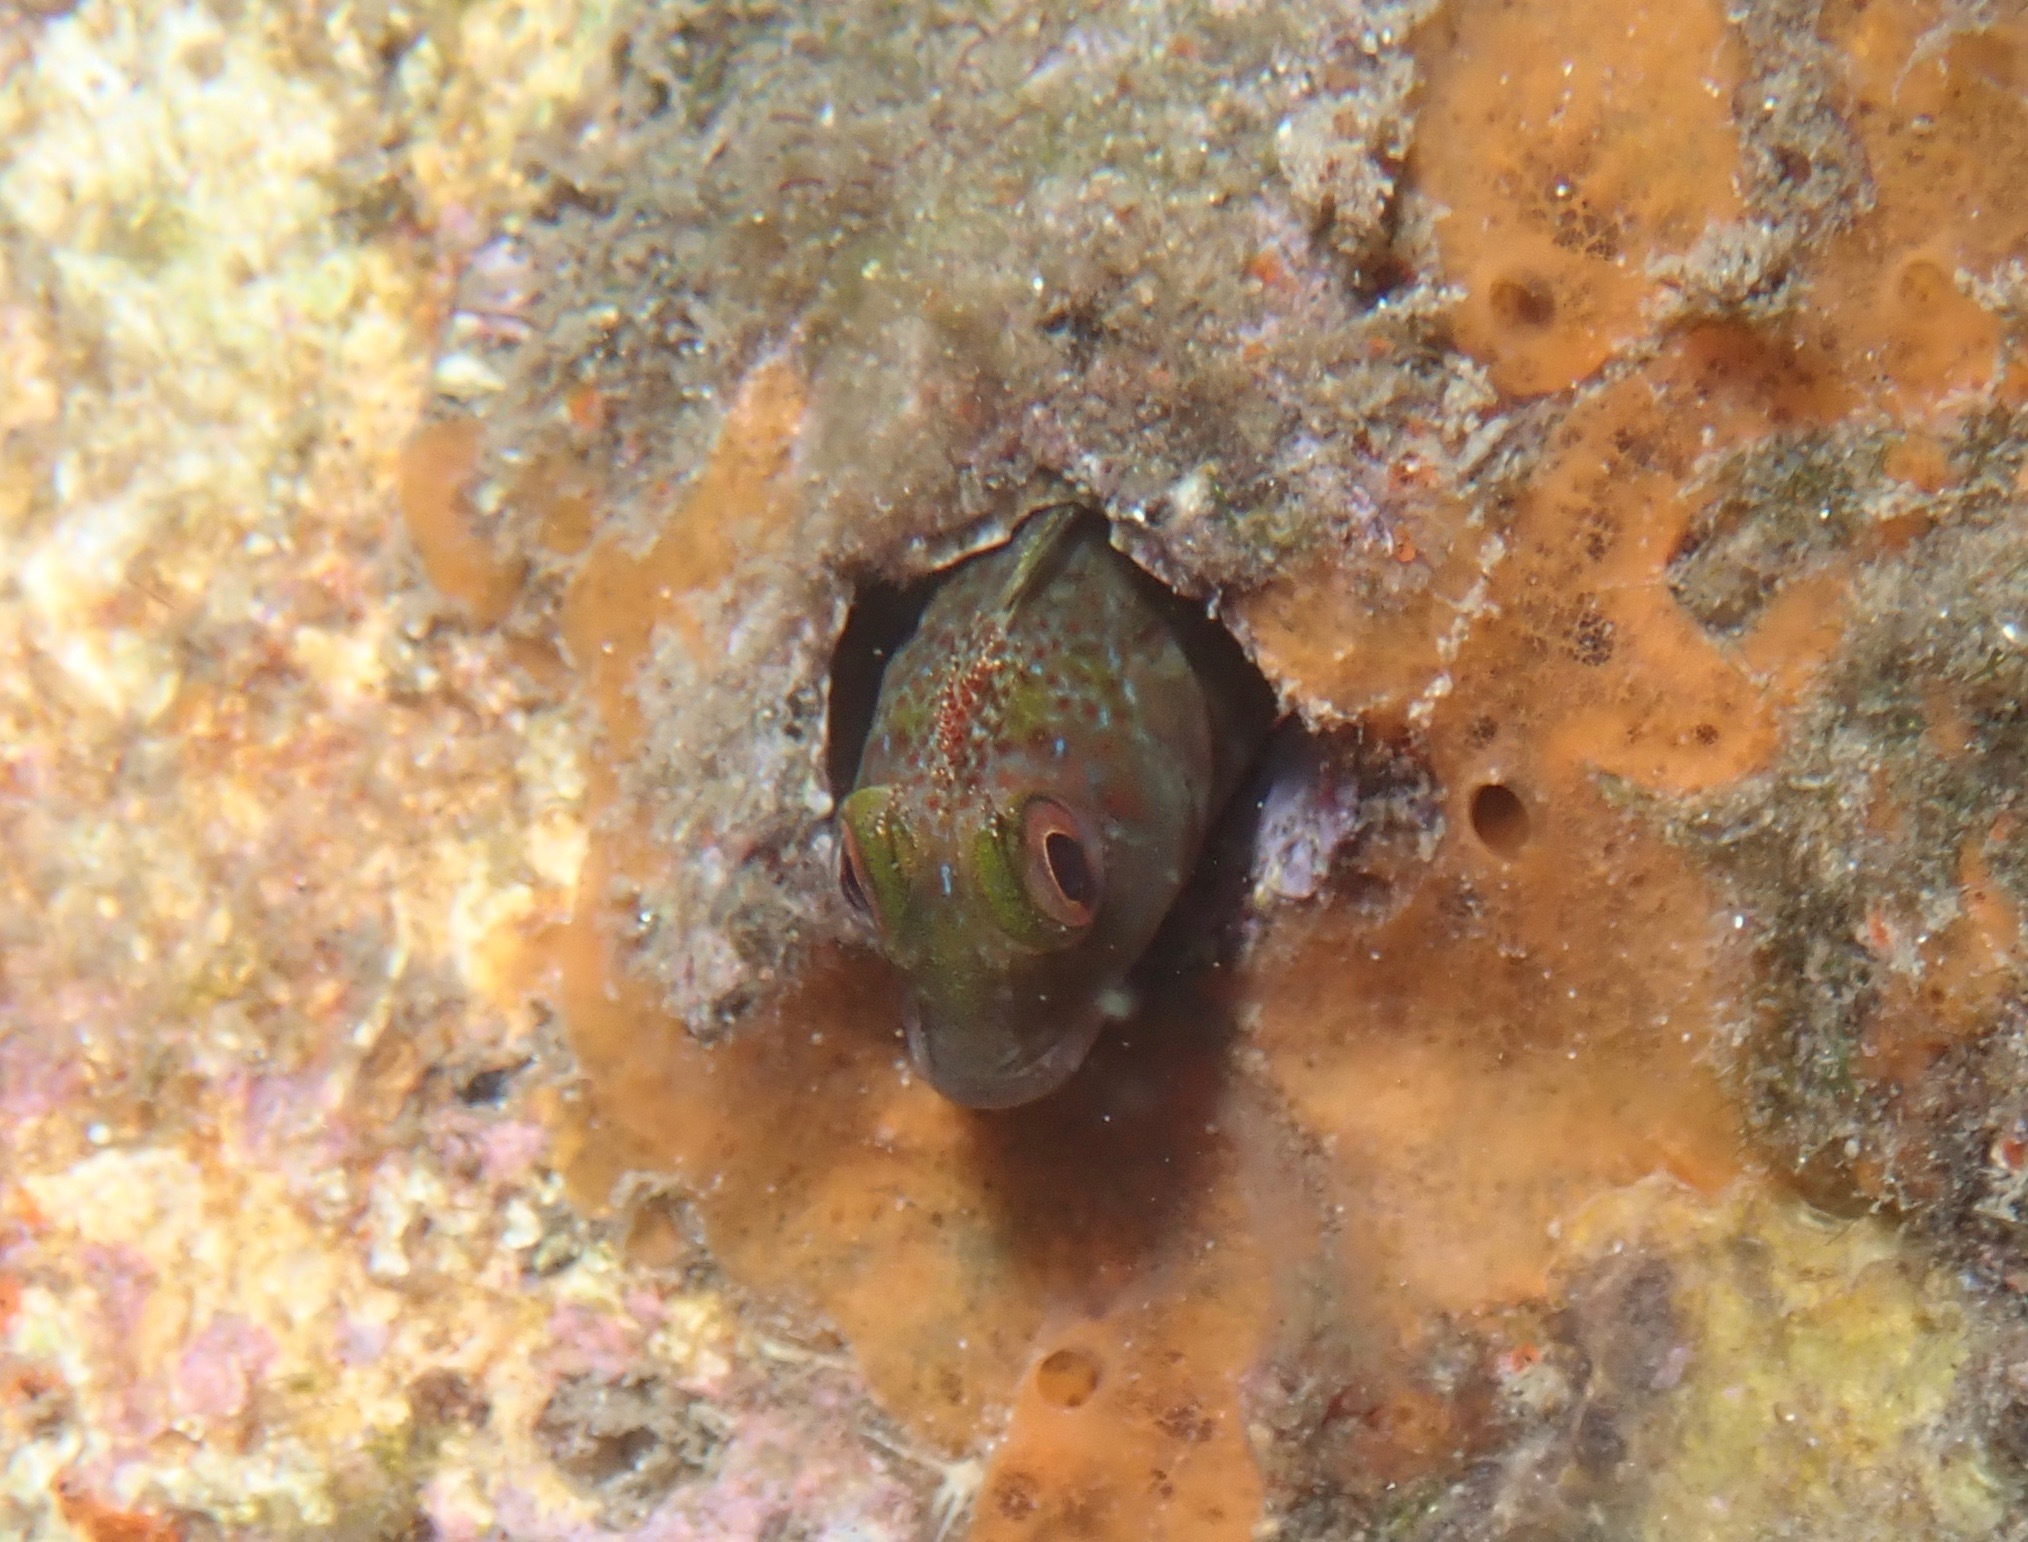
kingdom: Animalia
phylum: Chordata
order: Perciformes
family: Blenniidae
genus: Scartella
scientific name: Scartella cristata
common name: Molly miller
